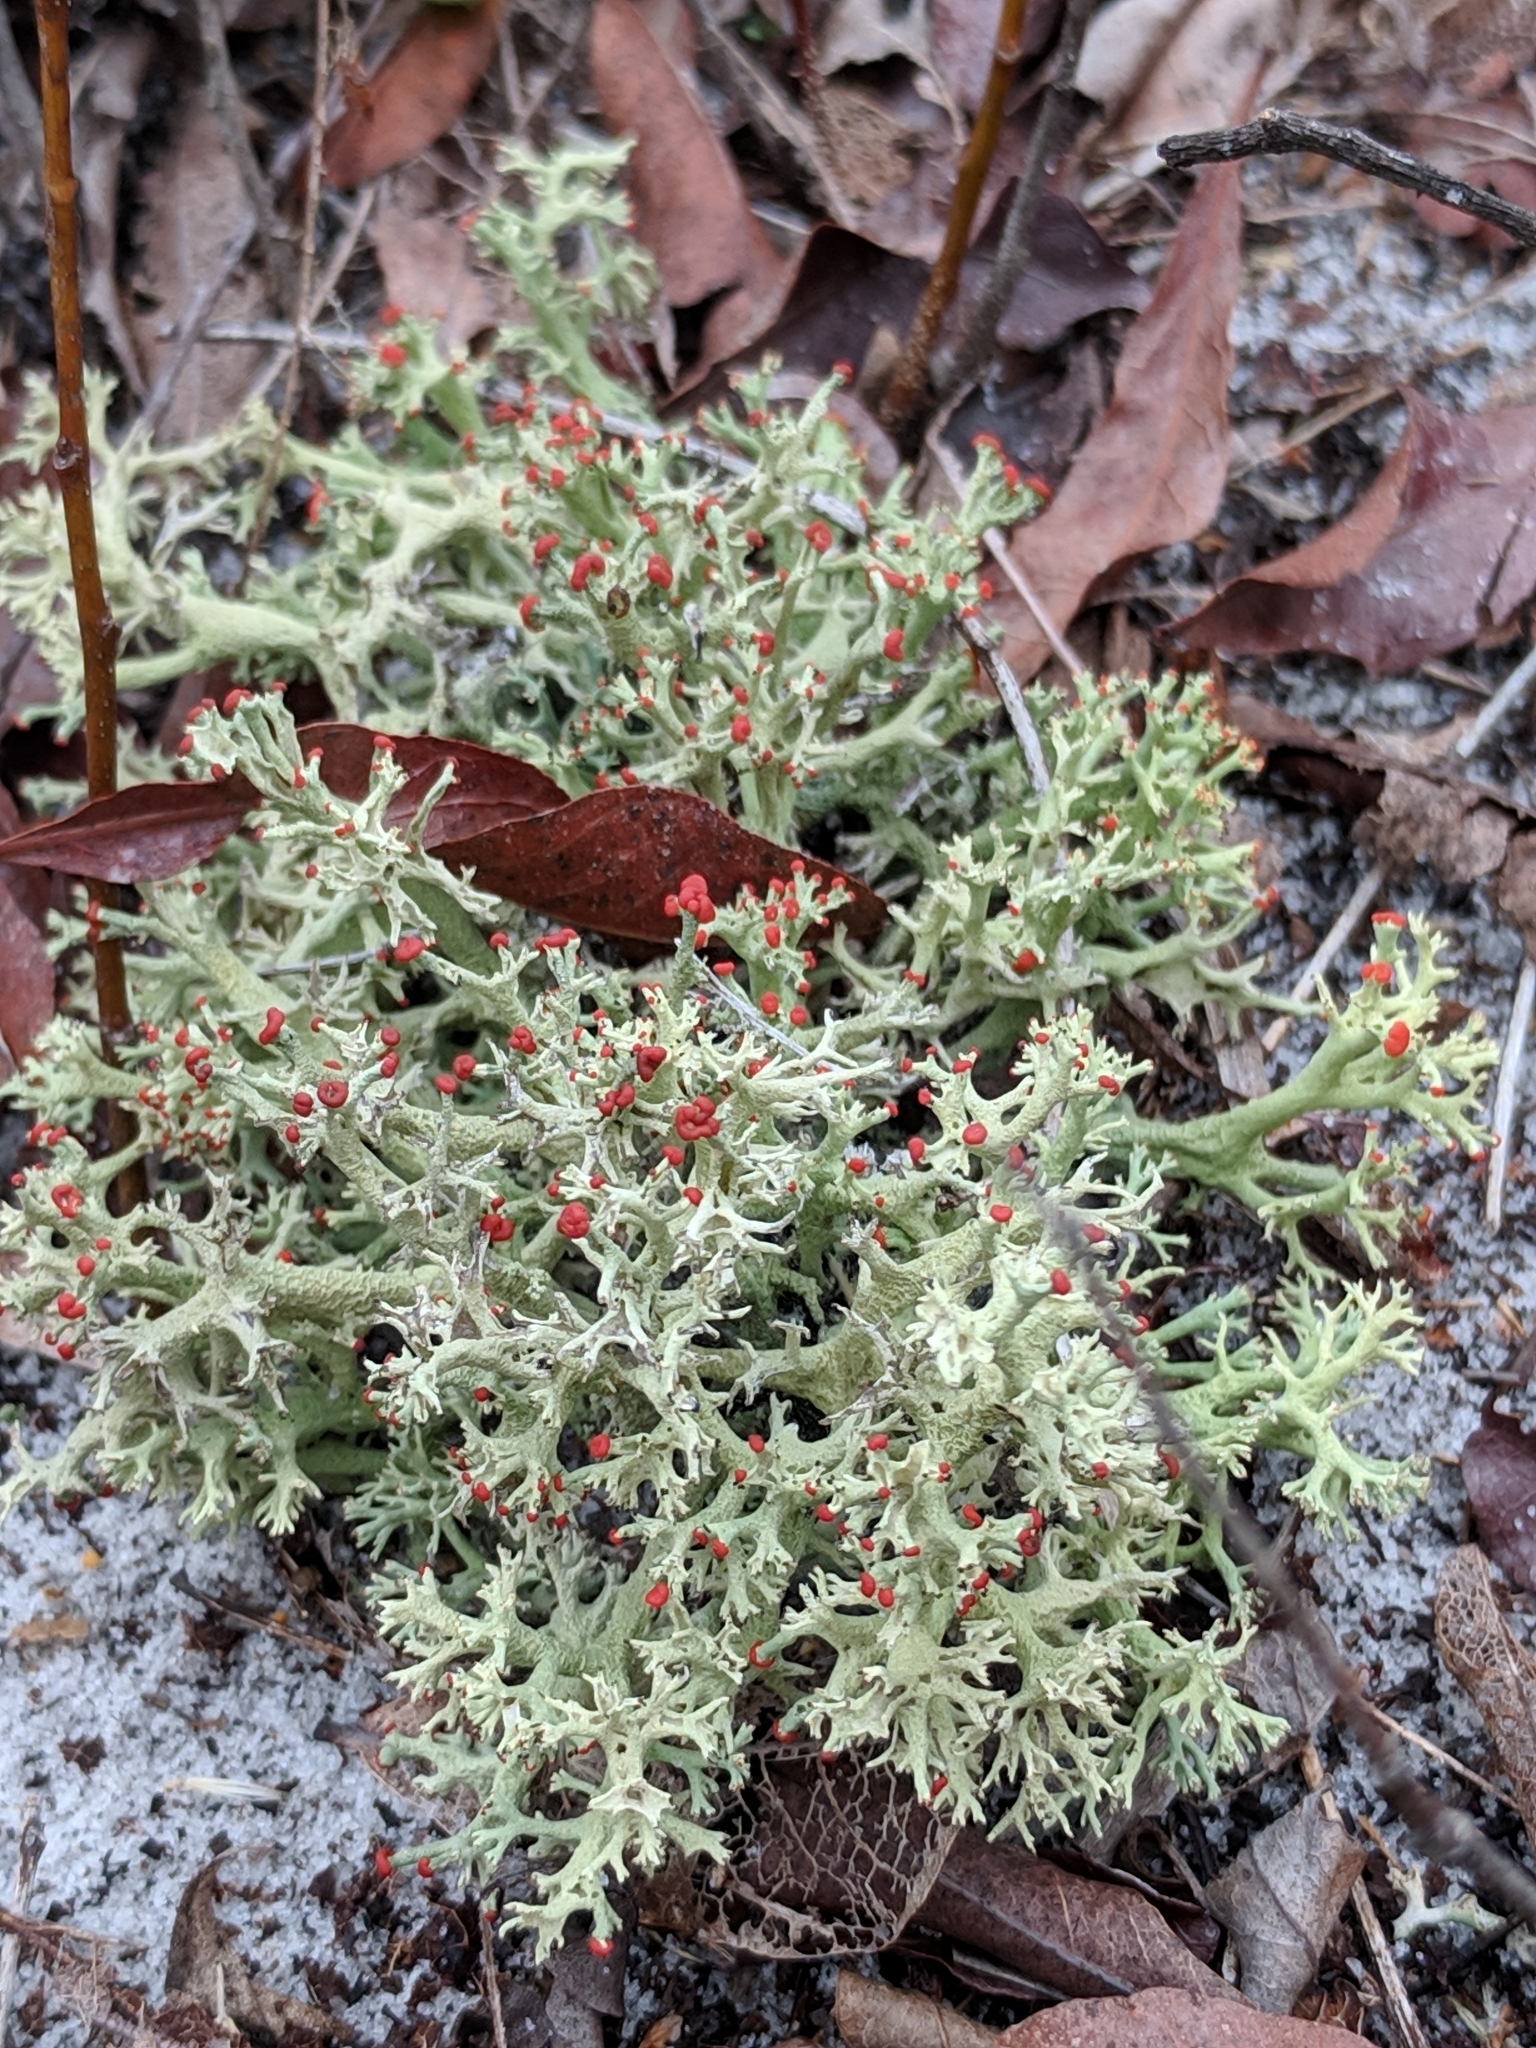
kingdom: Fungi
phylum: Ascomycota
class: Lecanoromycetes
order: Lecanorales
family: Cladoniaceae
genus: Cladonia
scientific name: Cladonia leporina
